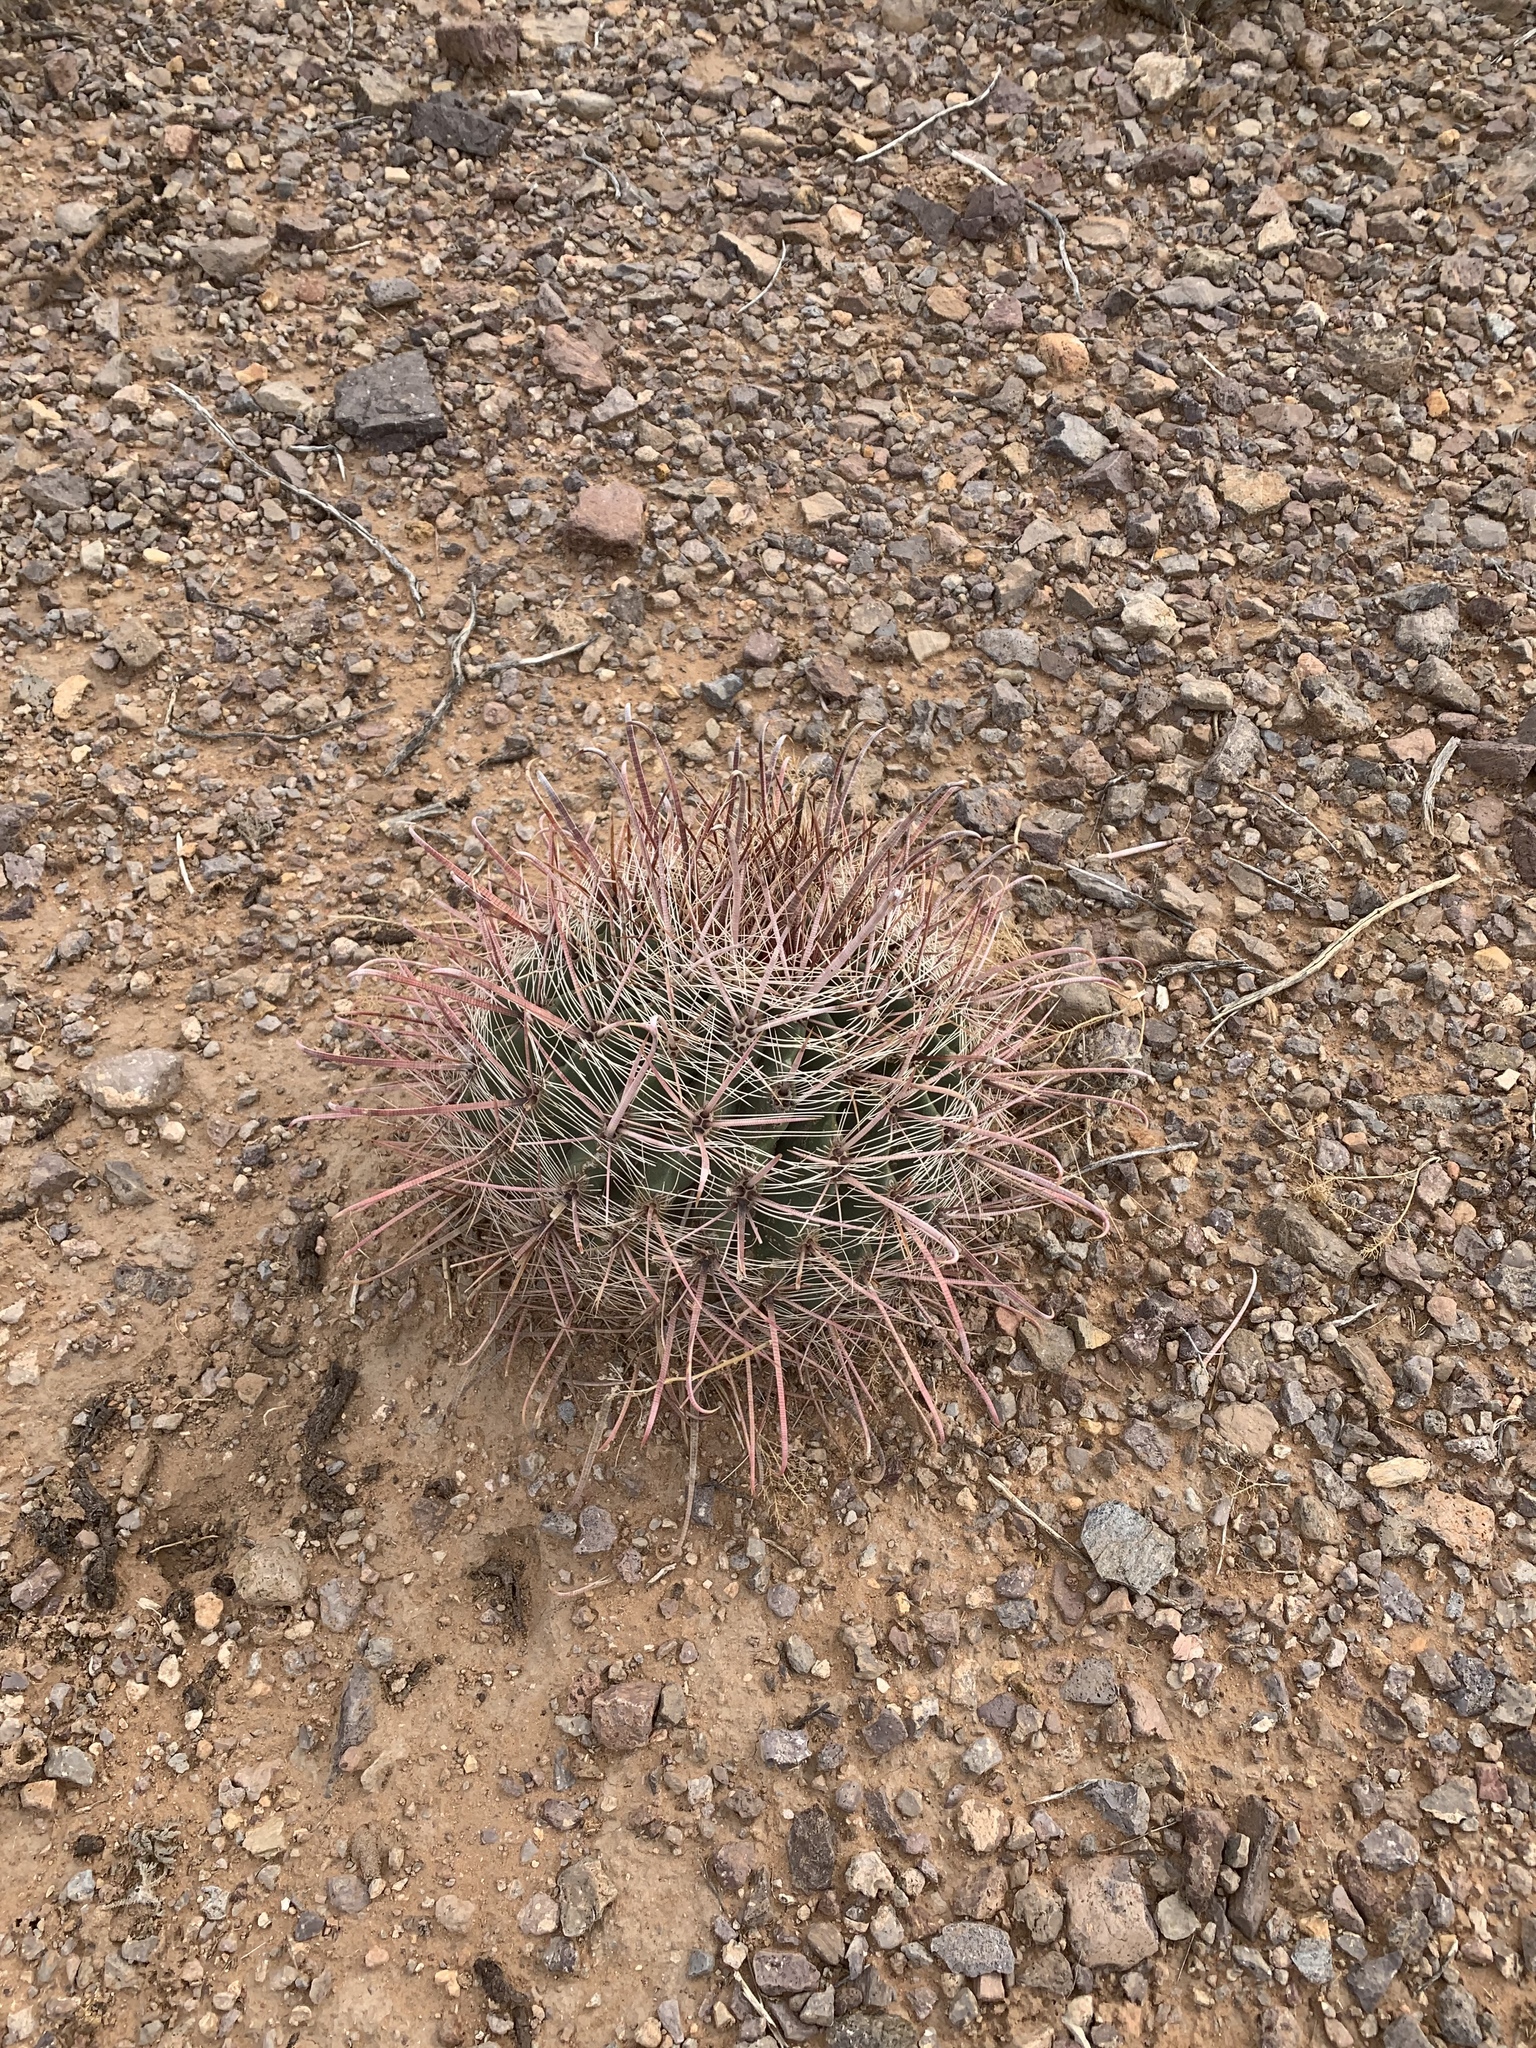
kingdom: Plantae
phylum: Tracheophyta
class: Magnoliopsida
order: Caryophyllales
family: Cactaceae
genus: Ferocactus
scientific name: Ferocactus wislizeni
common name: Candy barrel cactus
